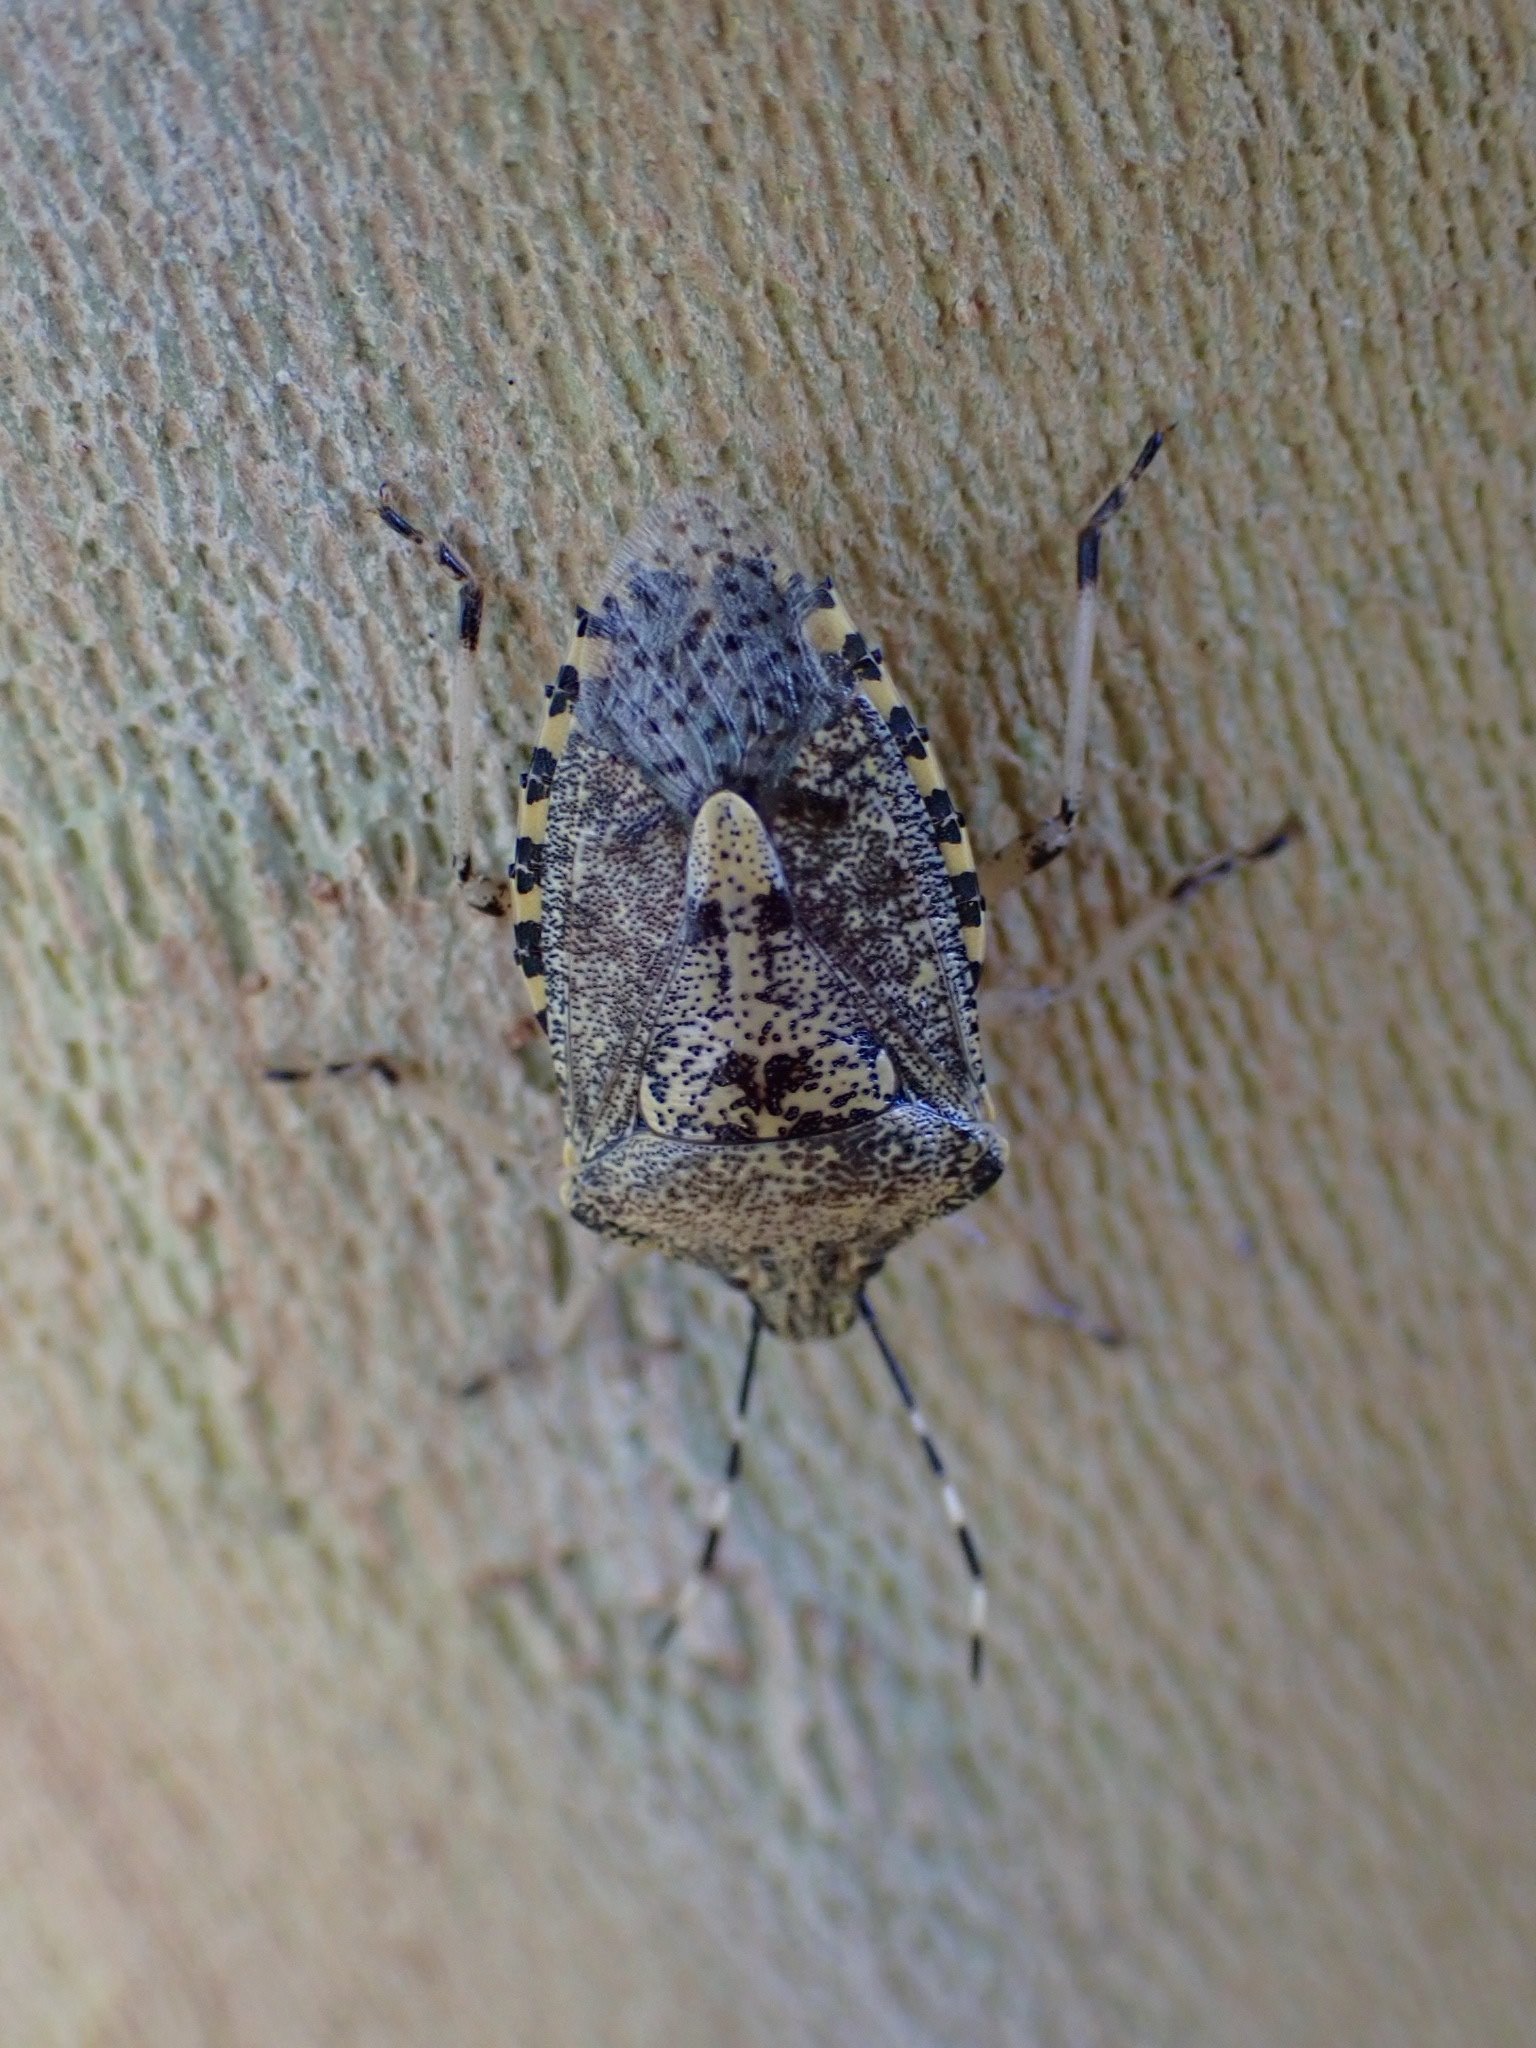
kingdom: Animalia
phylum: Arthropoda
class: Insecta
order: Hemiptera
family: Pentatomidae
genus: Rhaphigaster
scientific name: Rhaphigaster nebulosa
